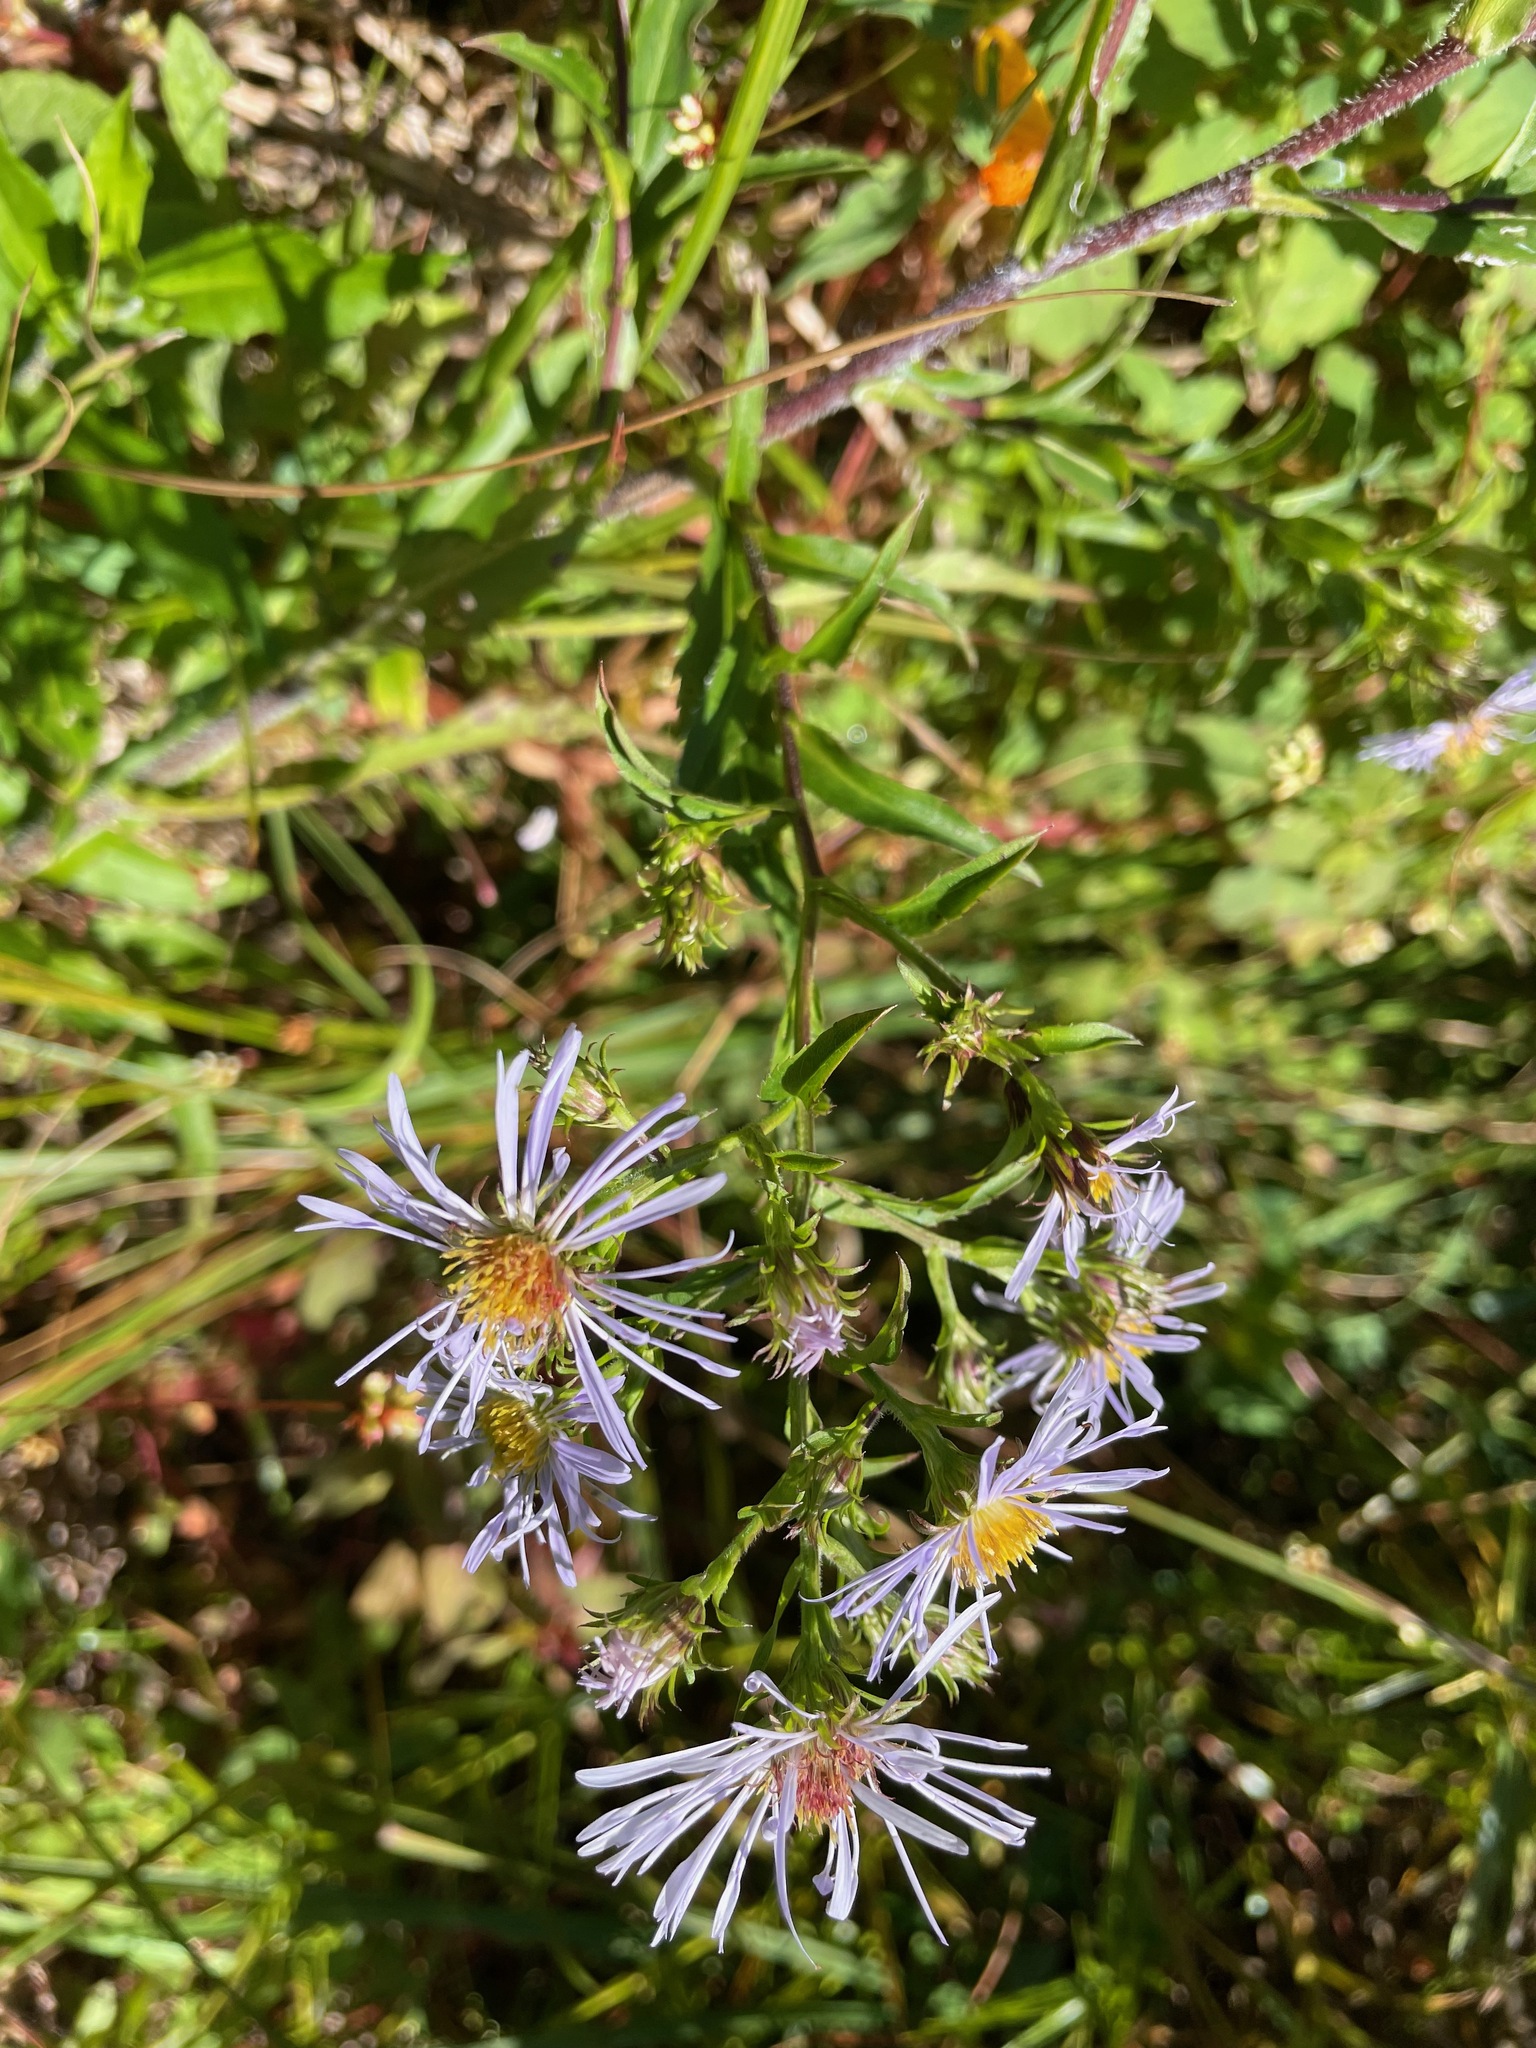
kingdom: Plantae
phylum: Tracheophyta
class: Magnoliopsida
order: Asterales
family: Asteraceae
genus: Symphyotrichum
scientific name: Symphyotrichum puniceum
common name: Bog aster
